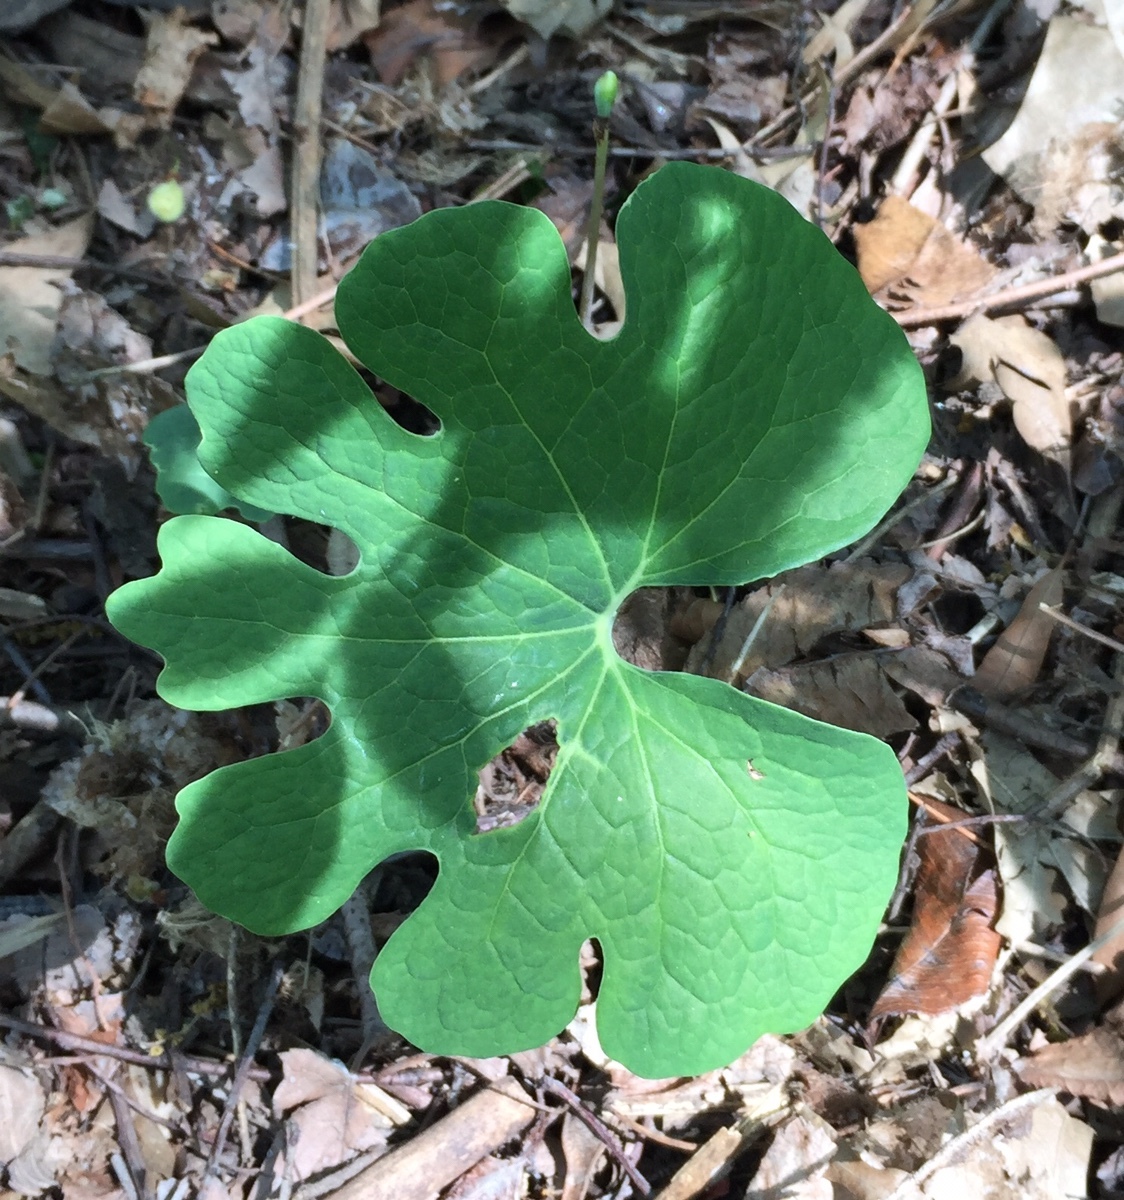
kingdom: Plantae
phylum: Tracheophyta
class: Magnoliopsida
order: Ranunculales
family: Papaveraceae
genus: Sanguinaria
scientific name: Sanguinaria canadensis
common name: Bloodroot
